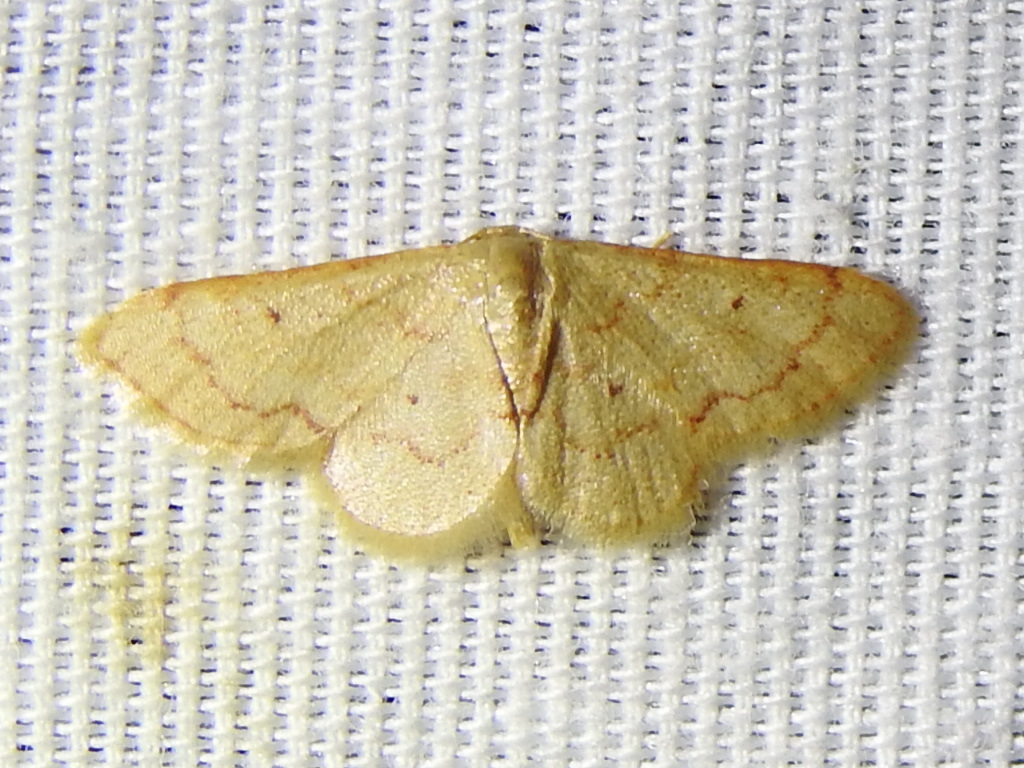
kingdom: Animalia
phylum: Arthropoda
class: Insecta
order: Lepidoptera
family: Geometridae
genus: Idaea
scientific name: Idaea demissaria
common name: Red-bordered wave
